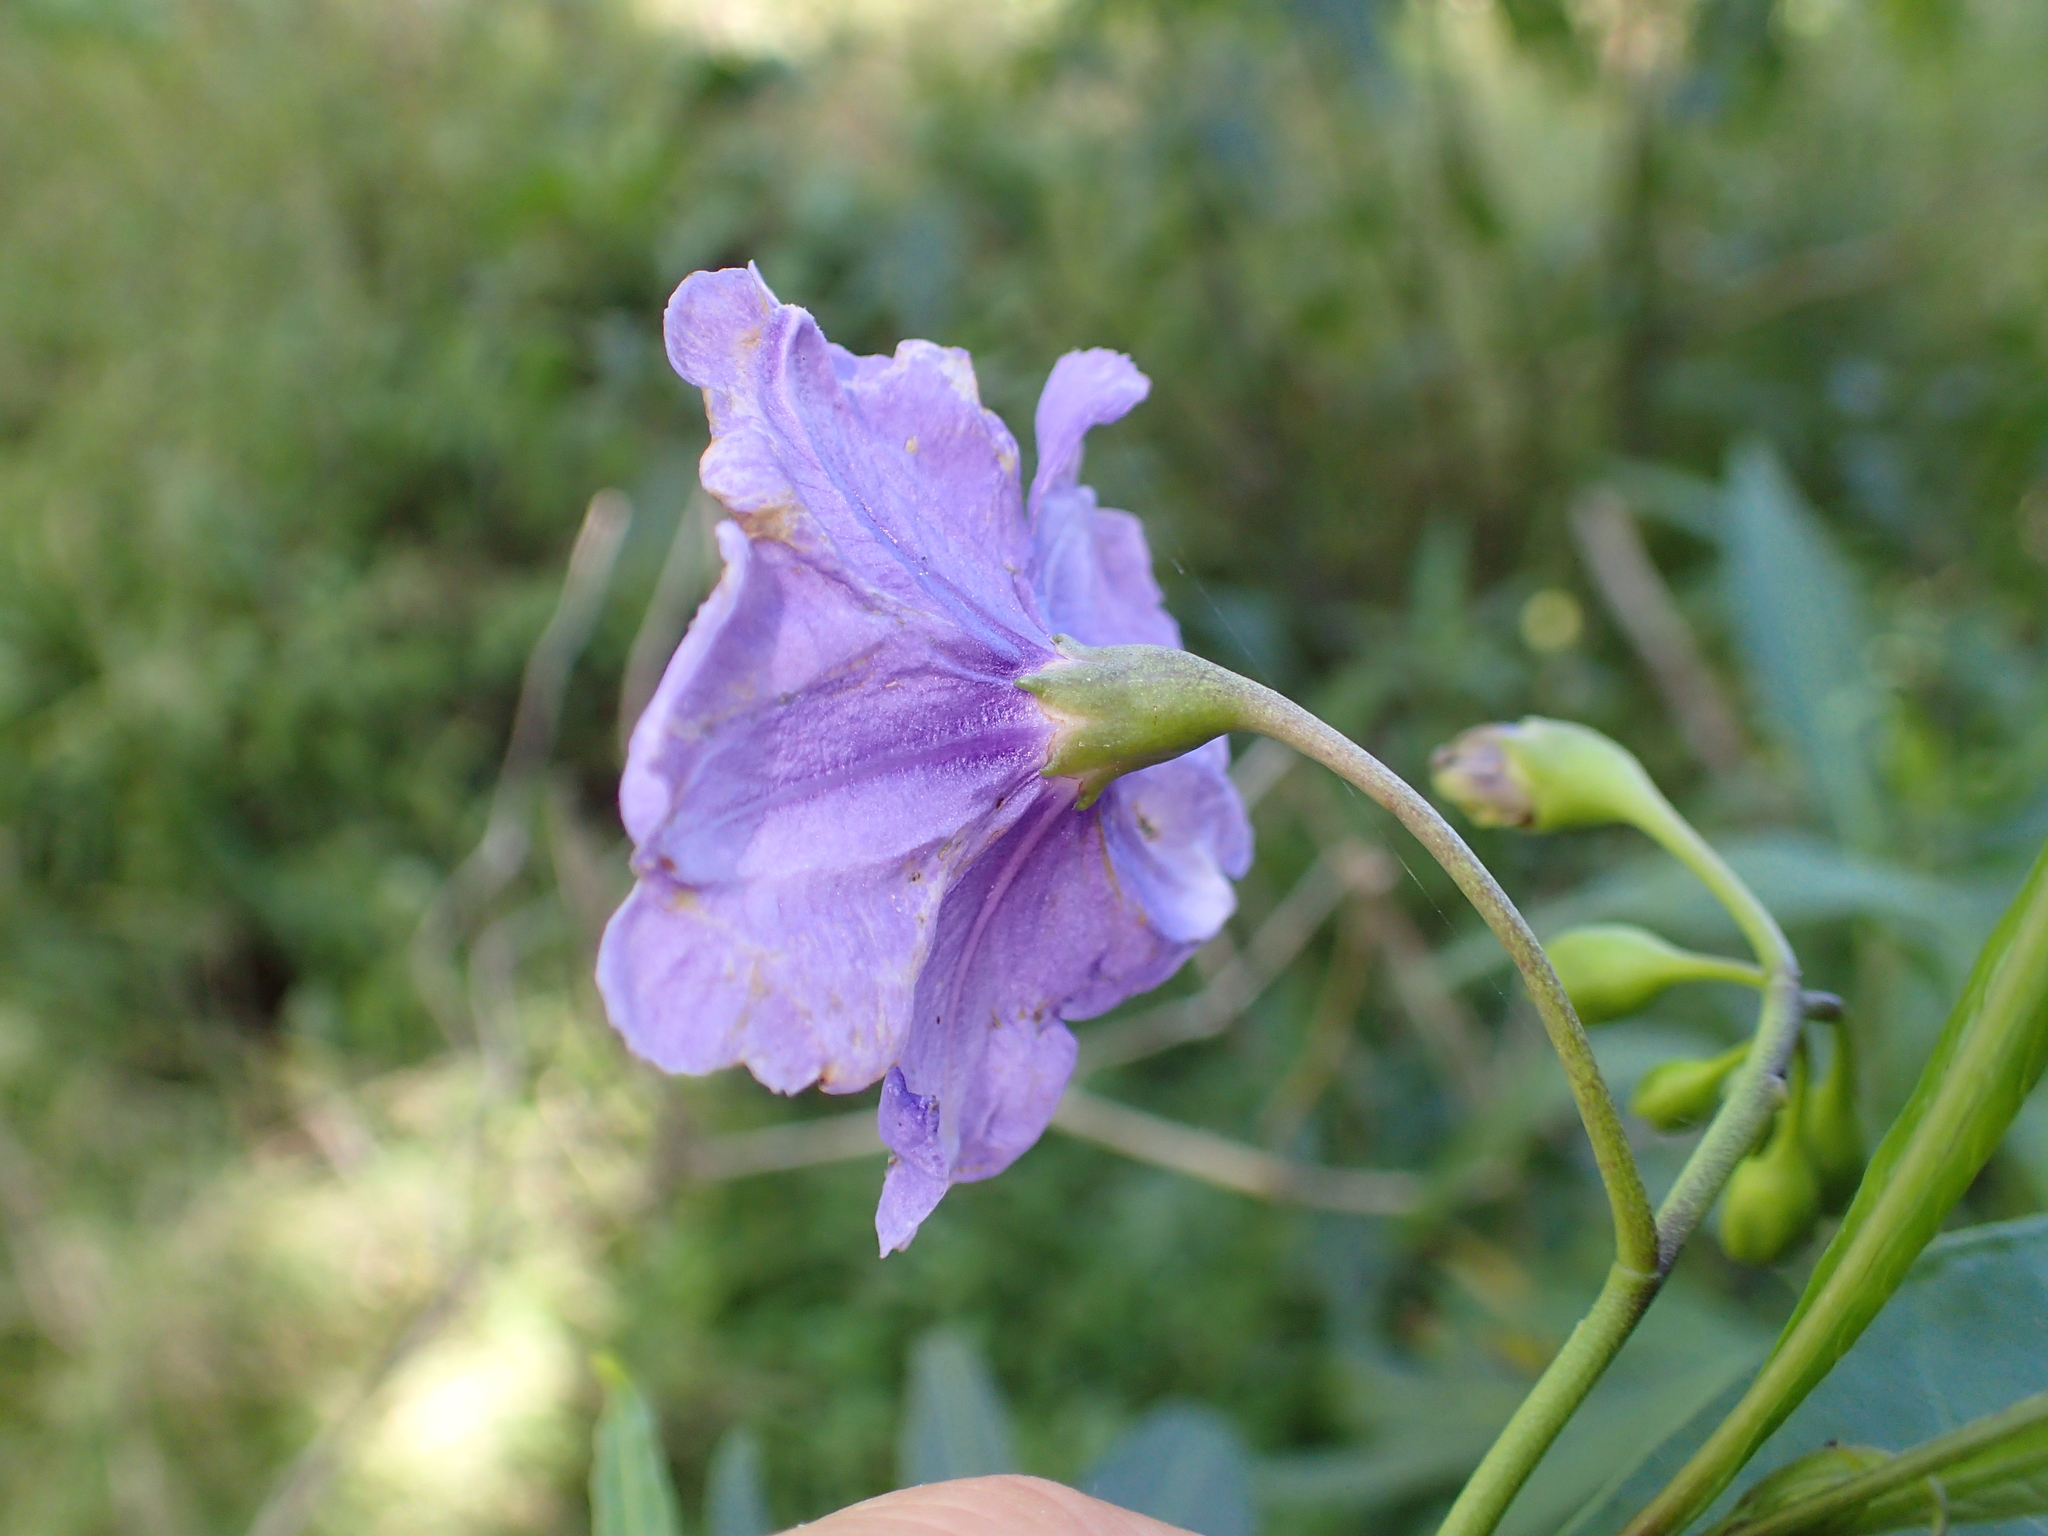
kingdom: Plantae
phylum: Tracheophyta
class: Magnoliopsida
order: Solanales
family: Solanaceae
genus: Solanum
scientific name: Solanum laciniatum
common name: Kangaroo-apple
